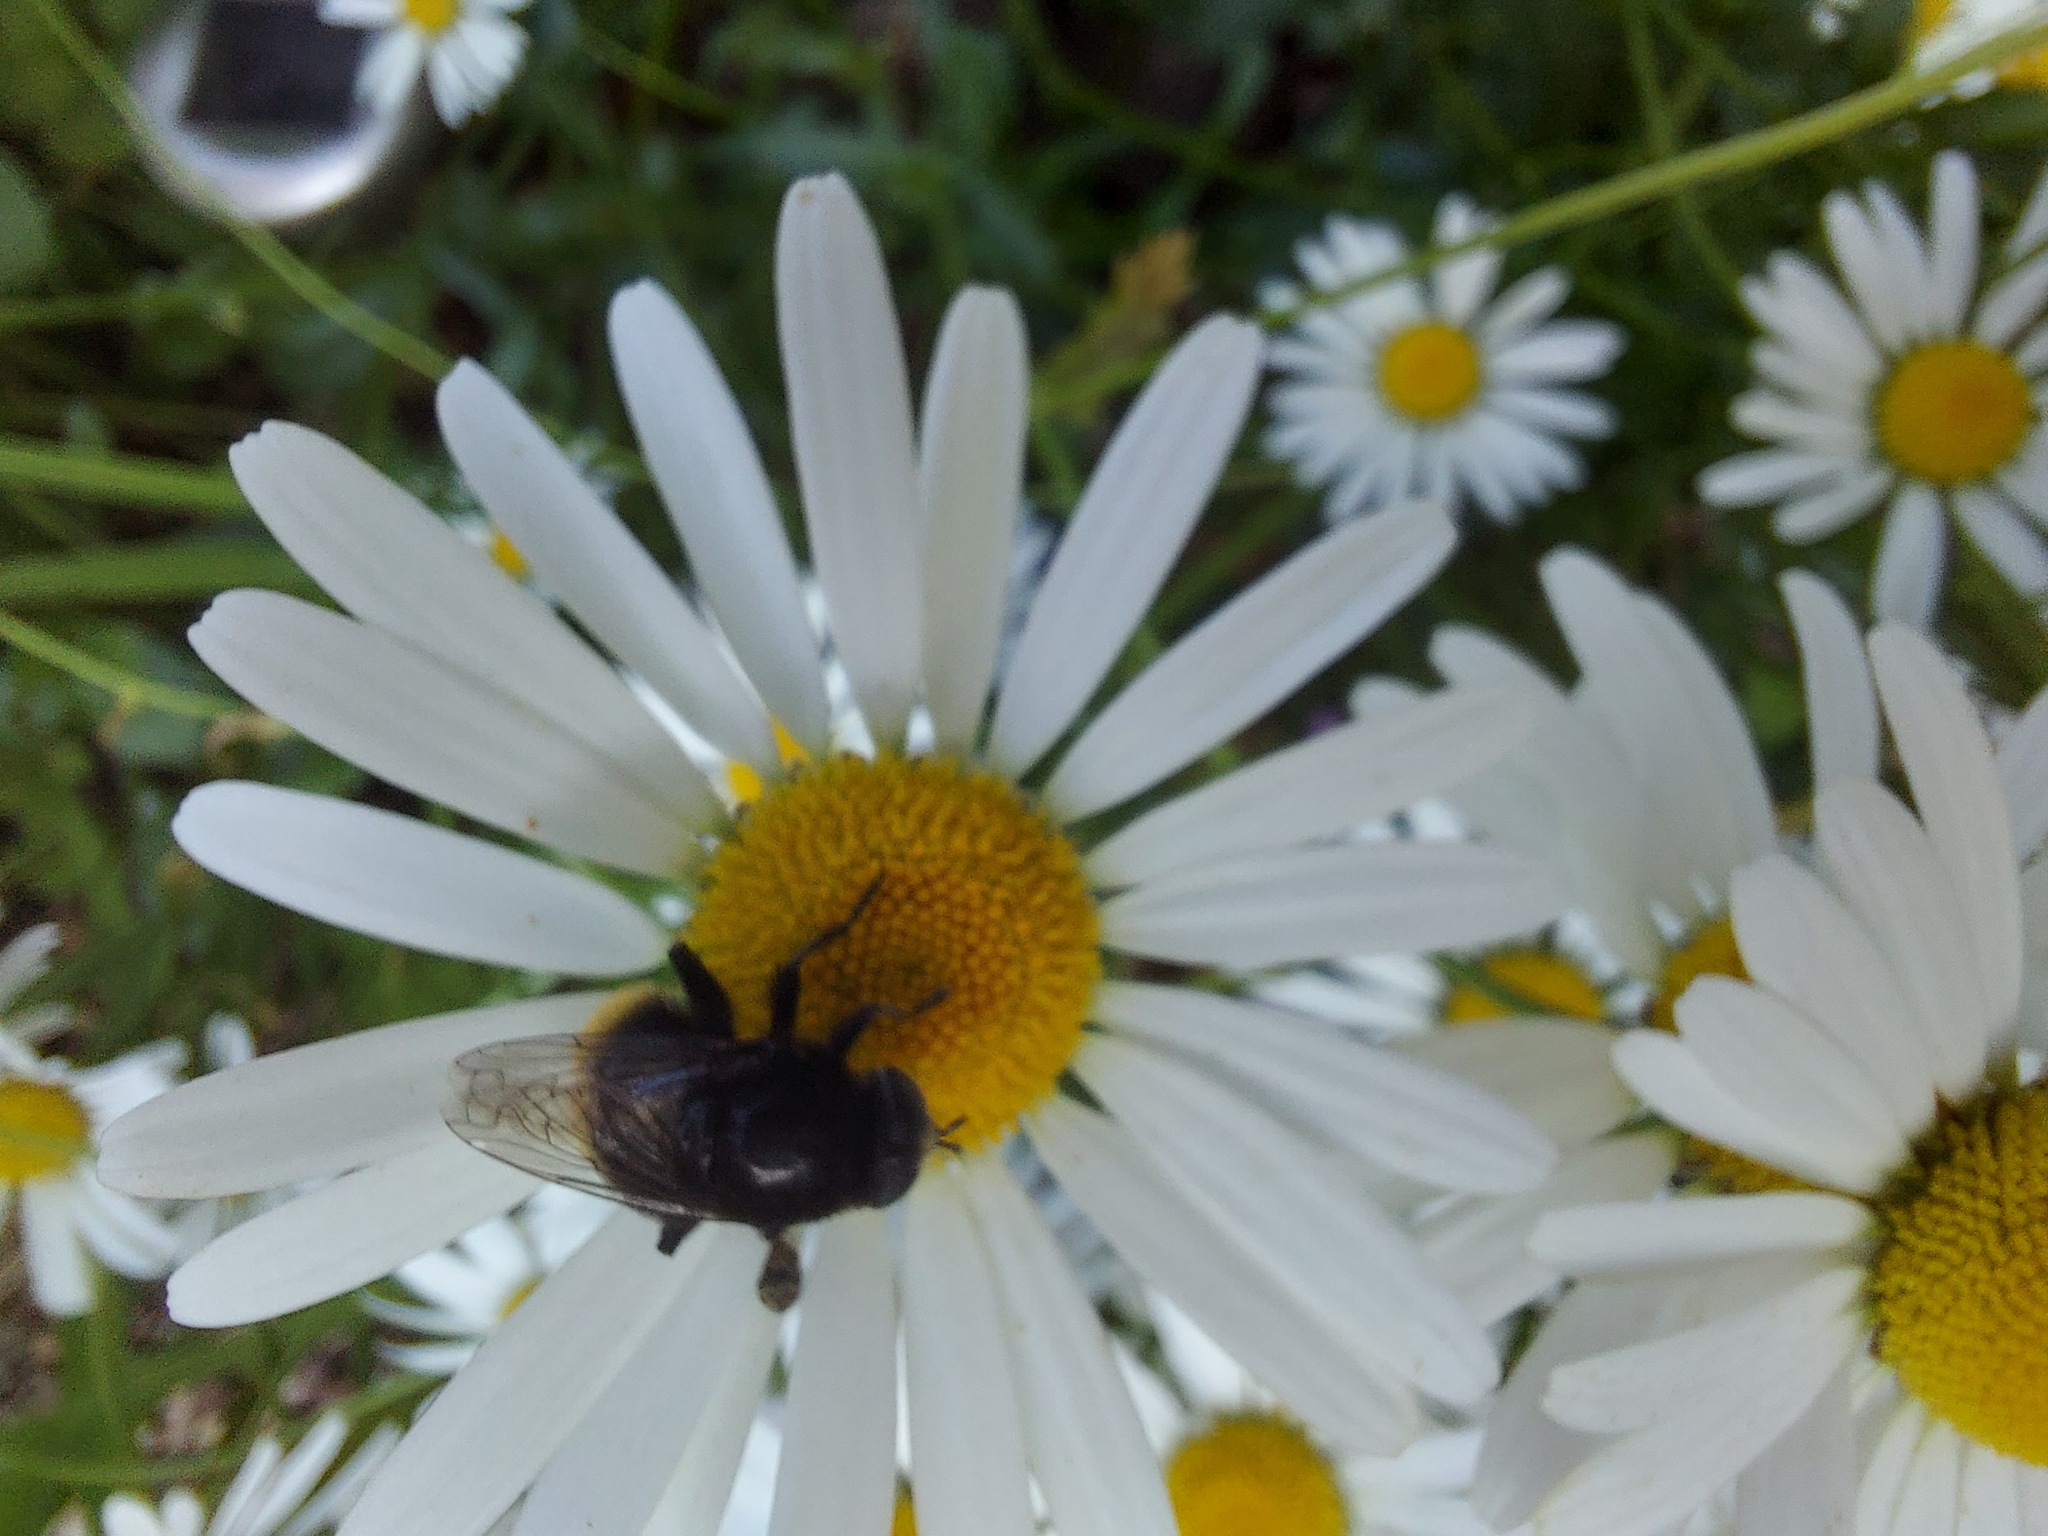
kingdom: Animalia
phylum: Arthropoda
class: Insecta
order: Diptera
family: Syrphidae
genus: Merodon
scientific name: Merodon equestris
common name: Greater bulb-fly
